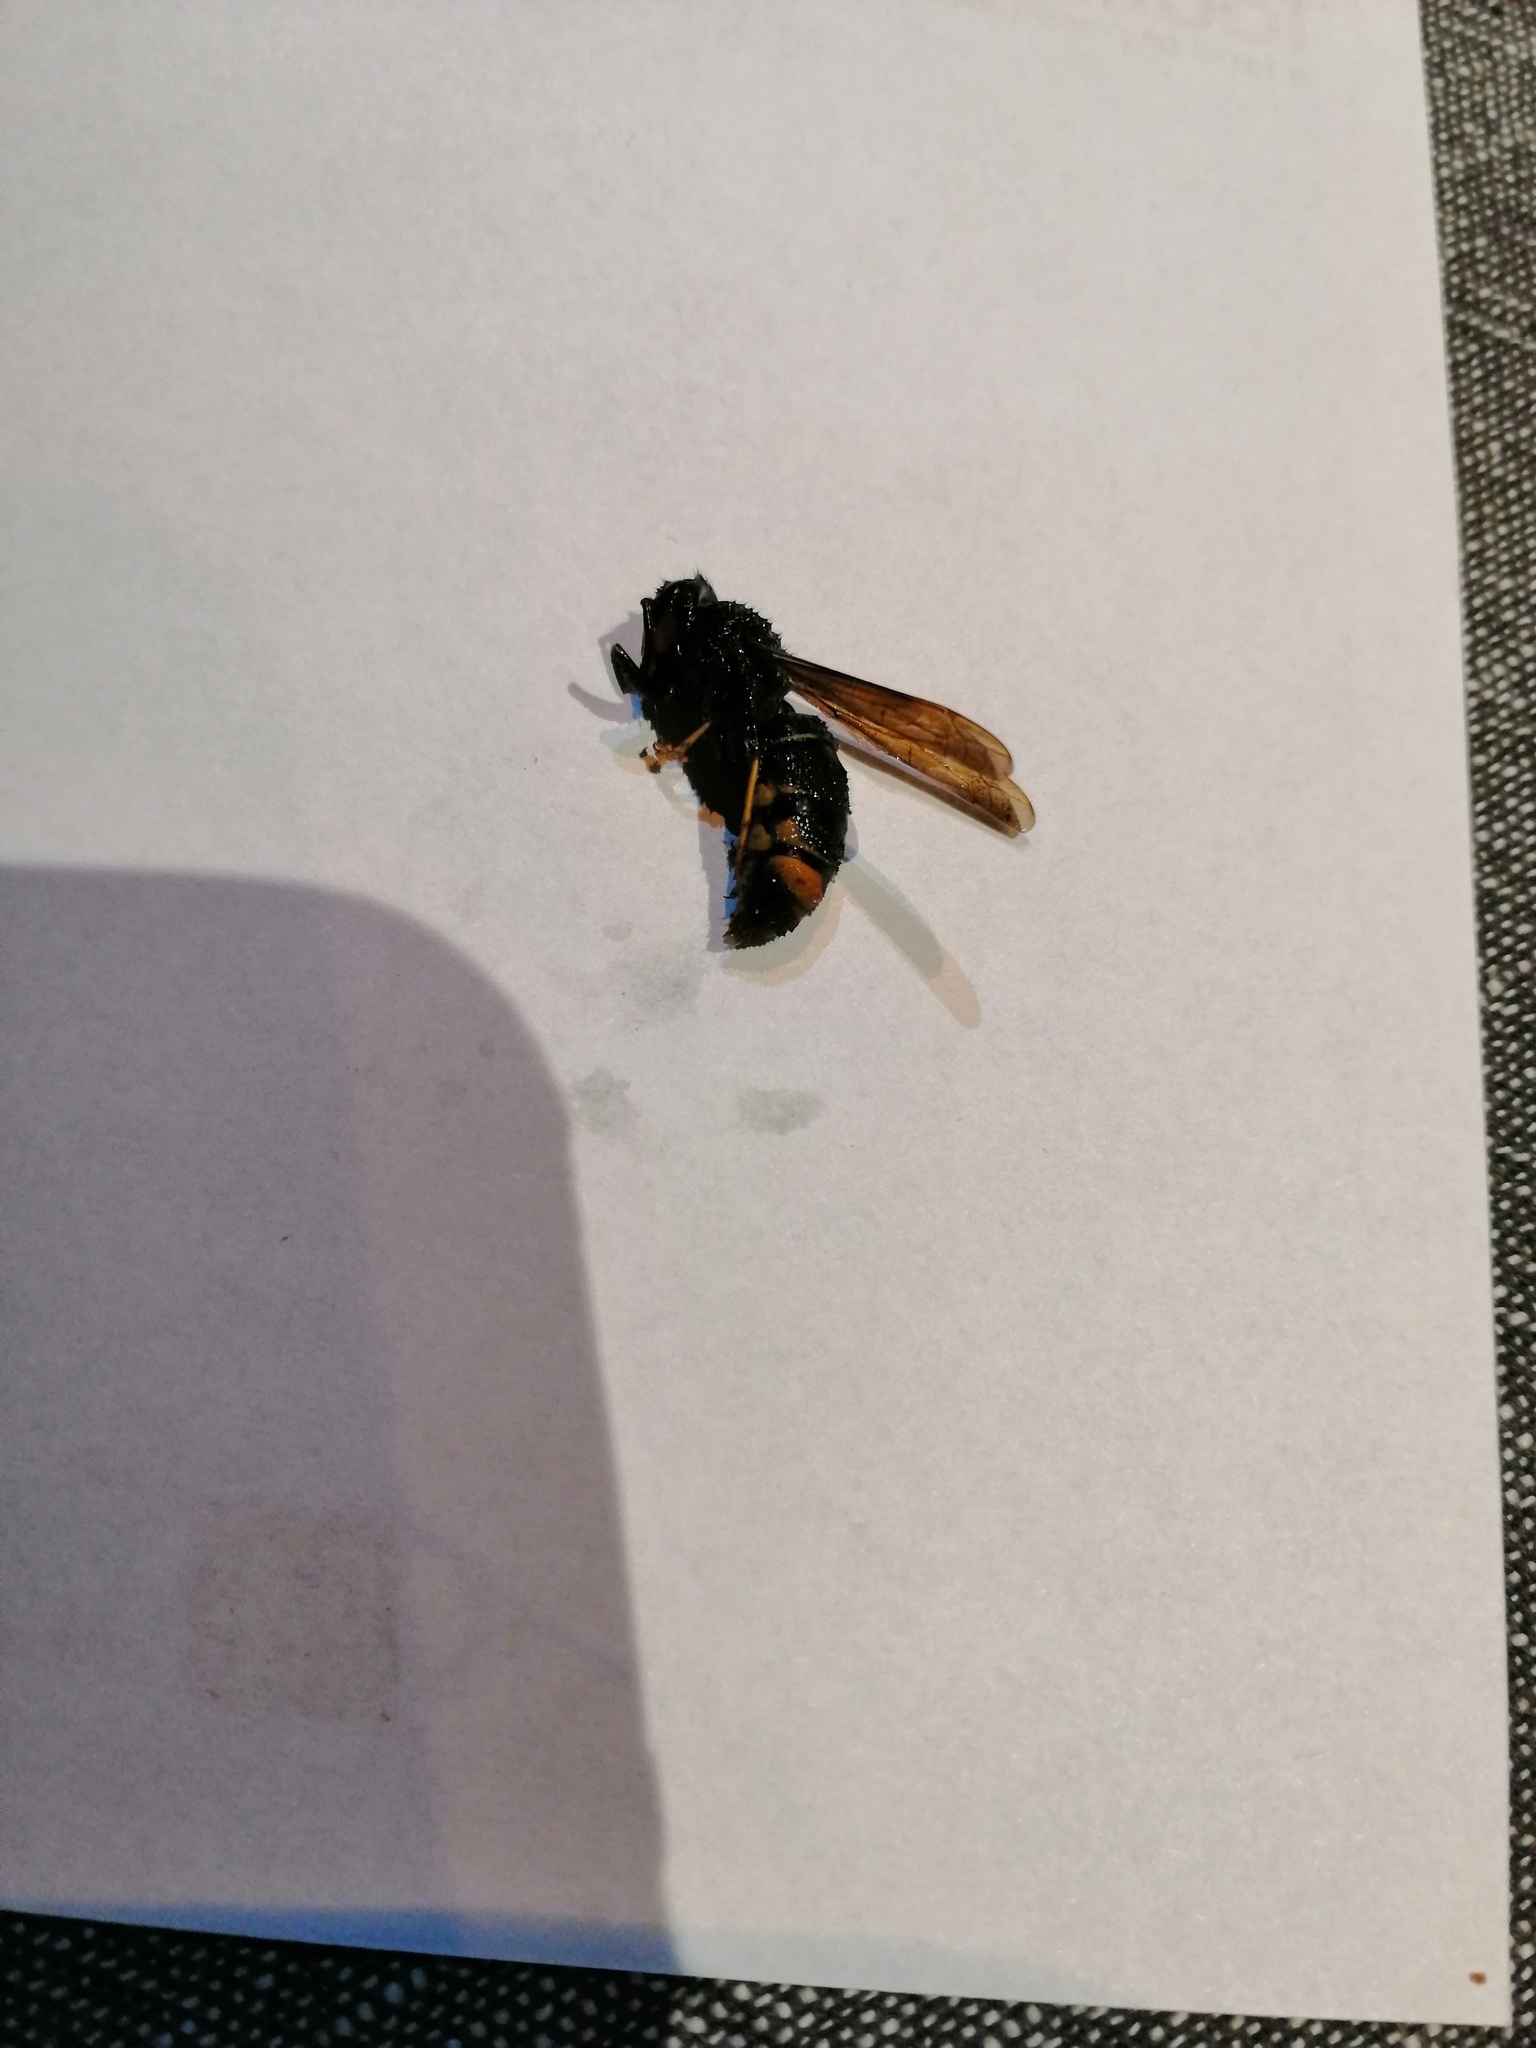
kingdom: Animalia
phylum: Arthropoda
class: Insecta
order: Hymenoptera
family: Vespidae
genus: Vespa
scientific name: Vespa velutina
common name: Asian hornet
